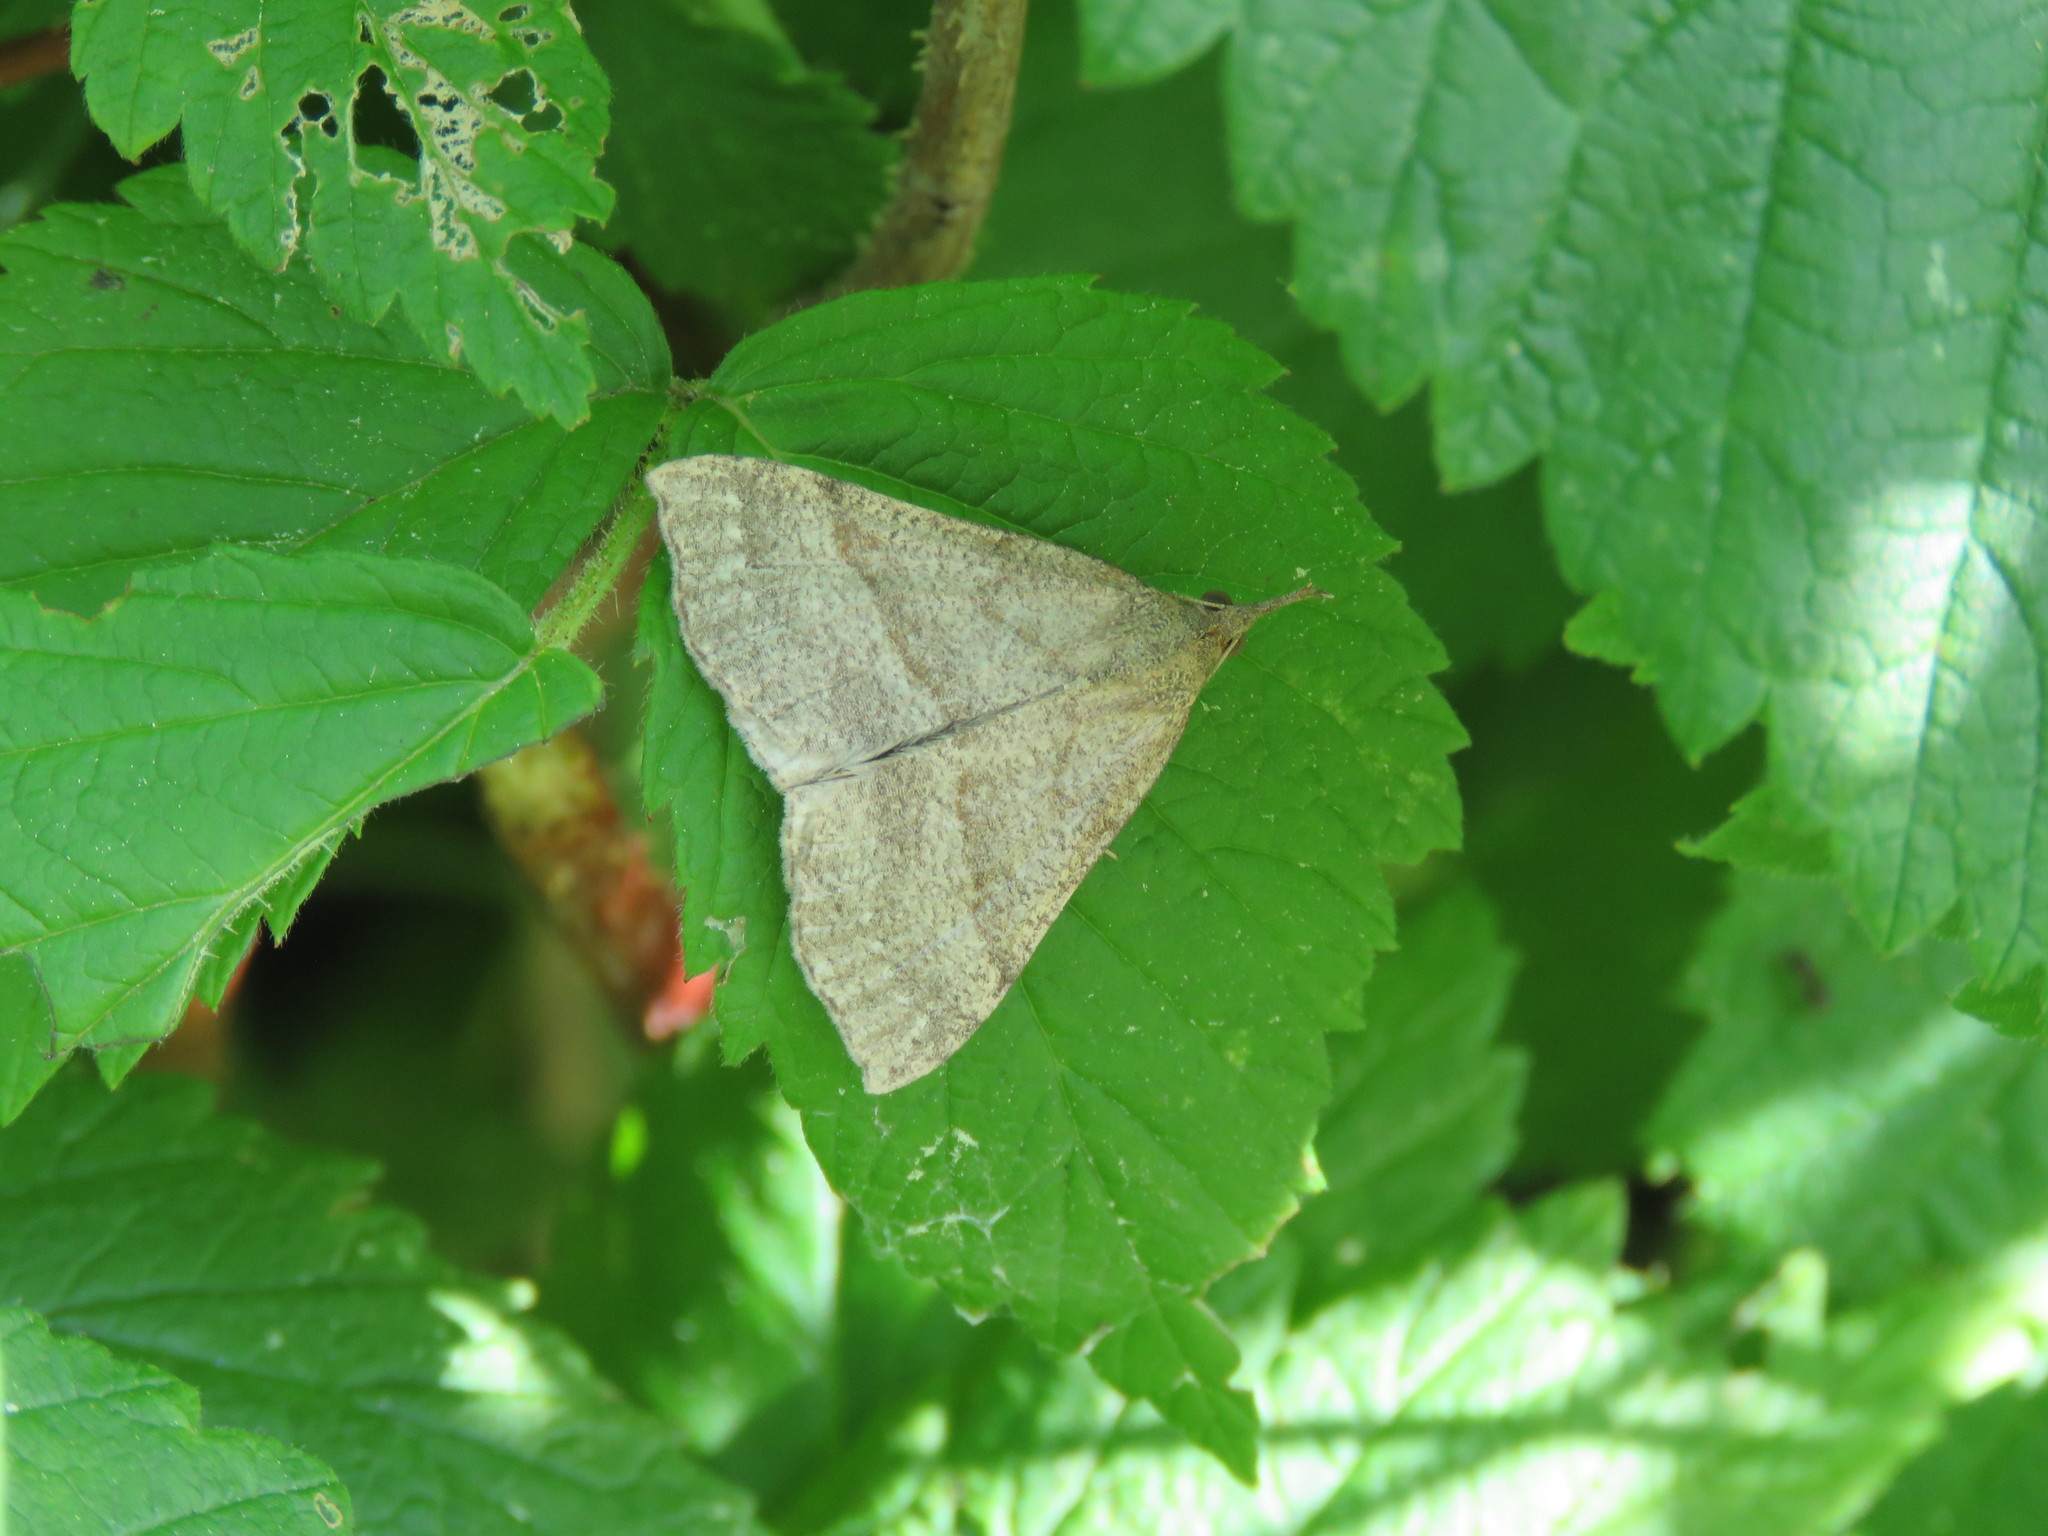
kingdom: Animalia
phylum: Arthropoda
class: Insecta
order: Lepidoptera
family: Erebidae
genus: Hypena
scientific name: Hypena atomaria
